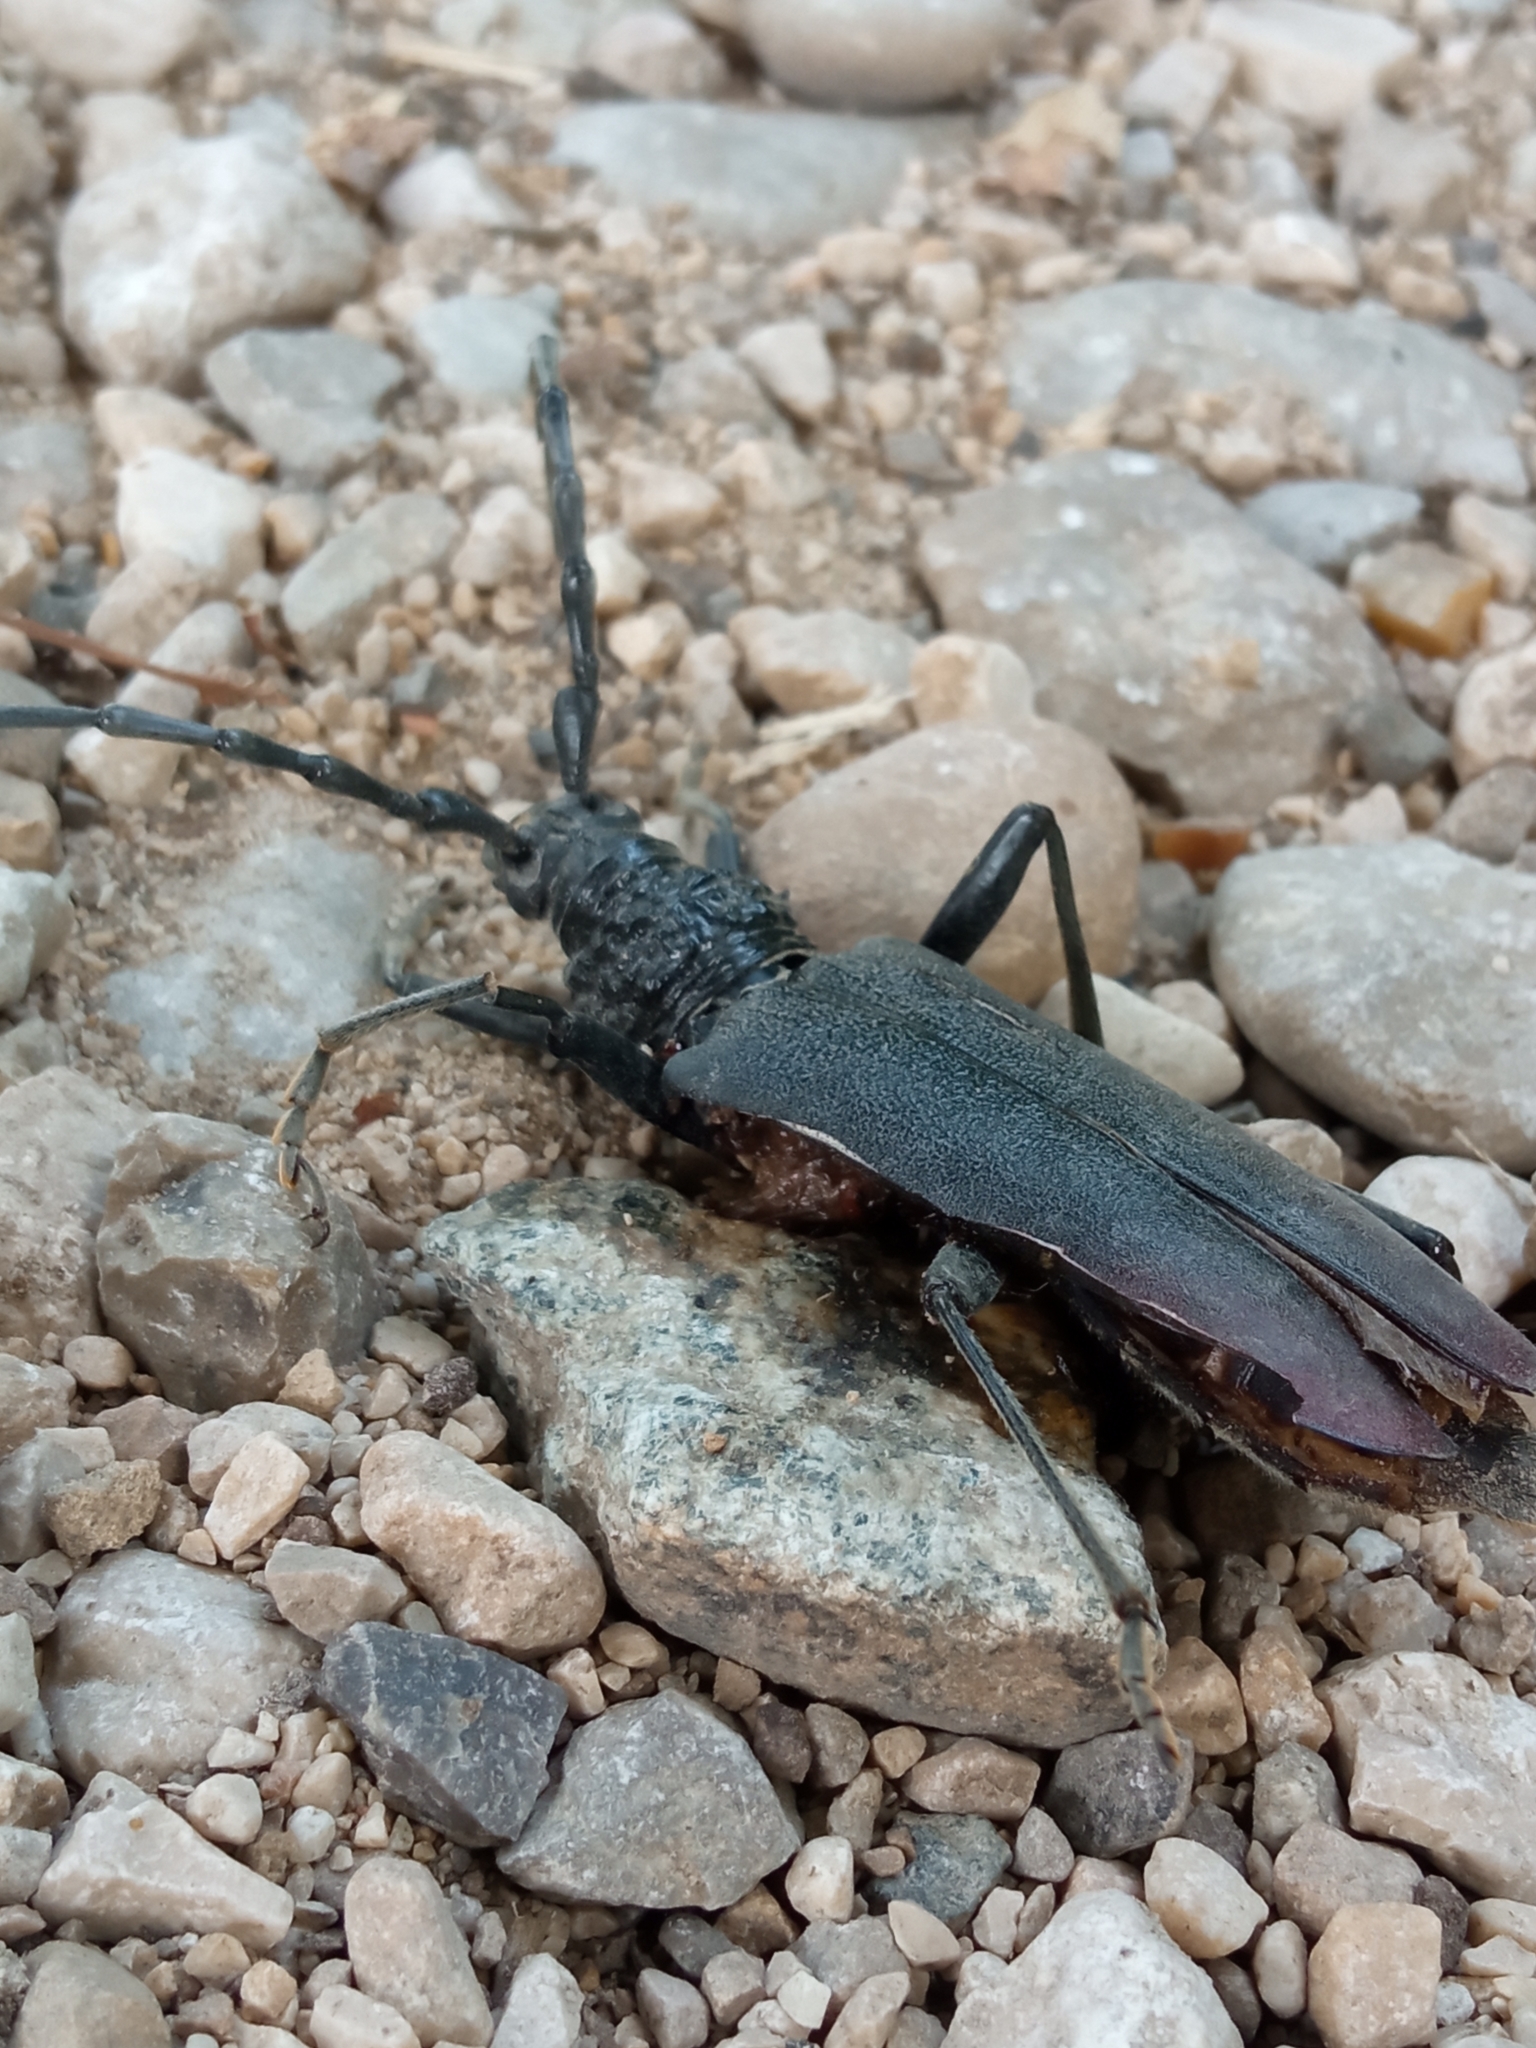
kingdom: Animalia
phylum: Arthropoda
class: Insecta
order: Coleoptera
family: Cerambycidae
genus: Cerambyx
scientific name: Cerambyx cerdo
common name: Cerambyx longicorn
